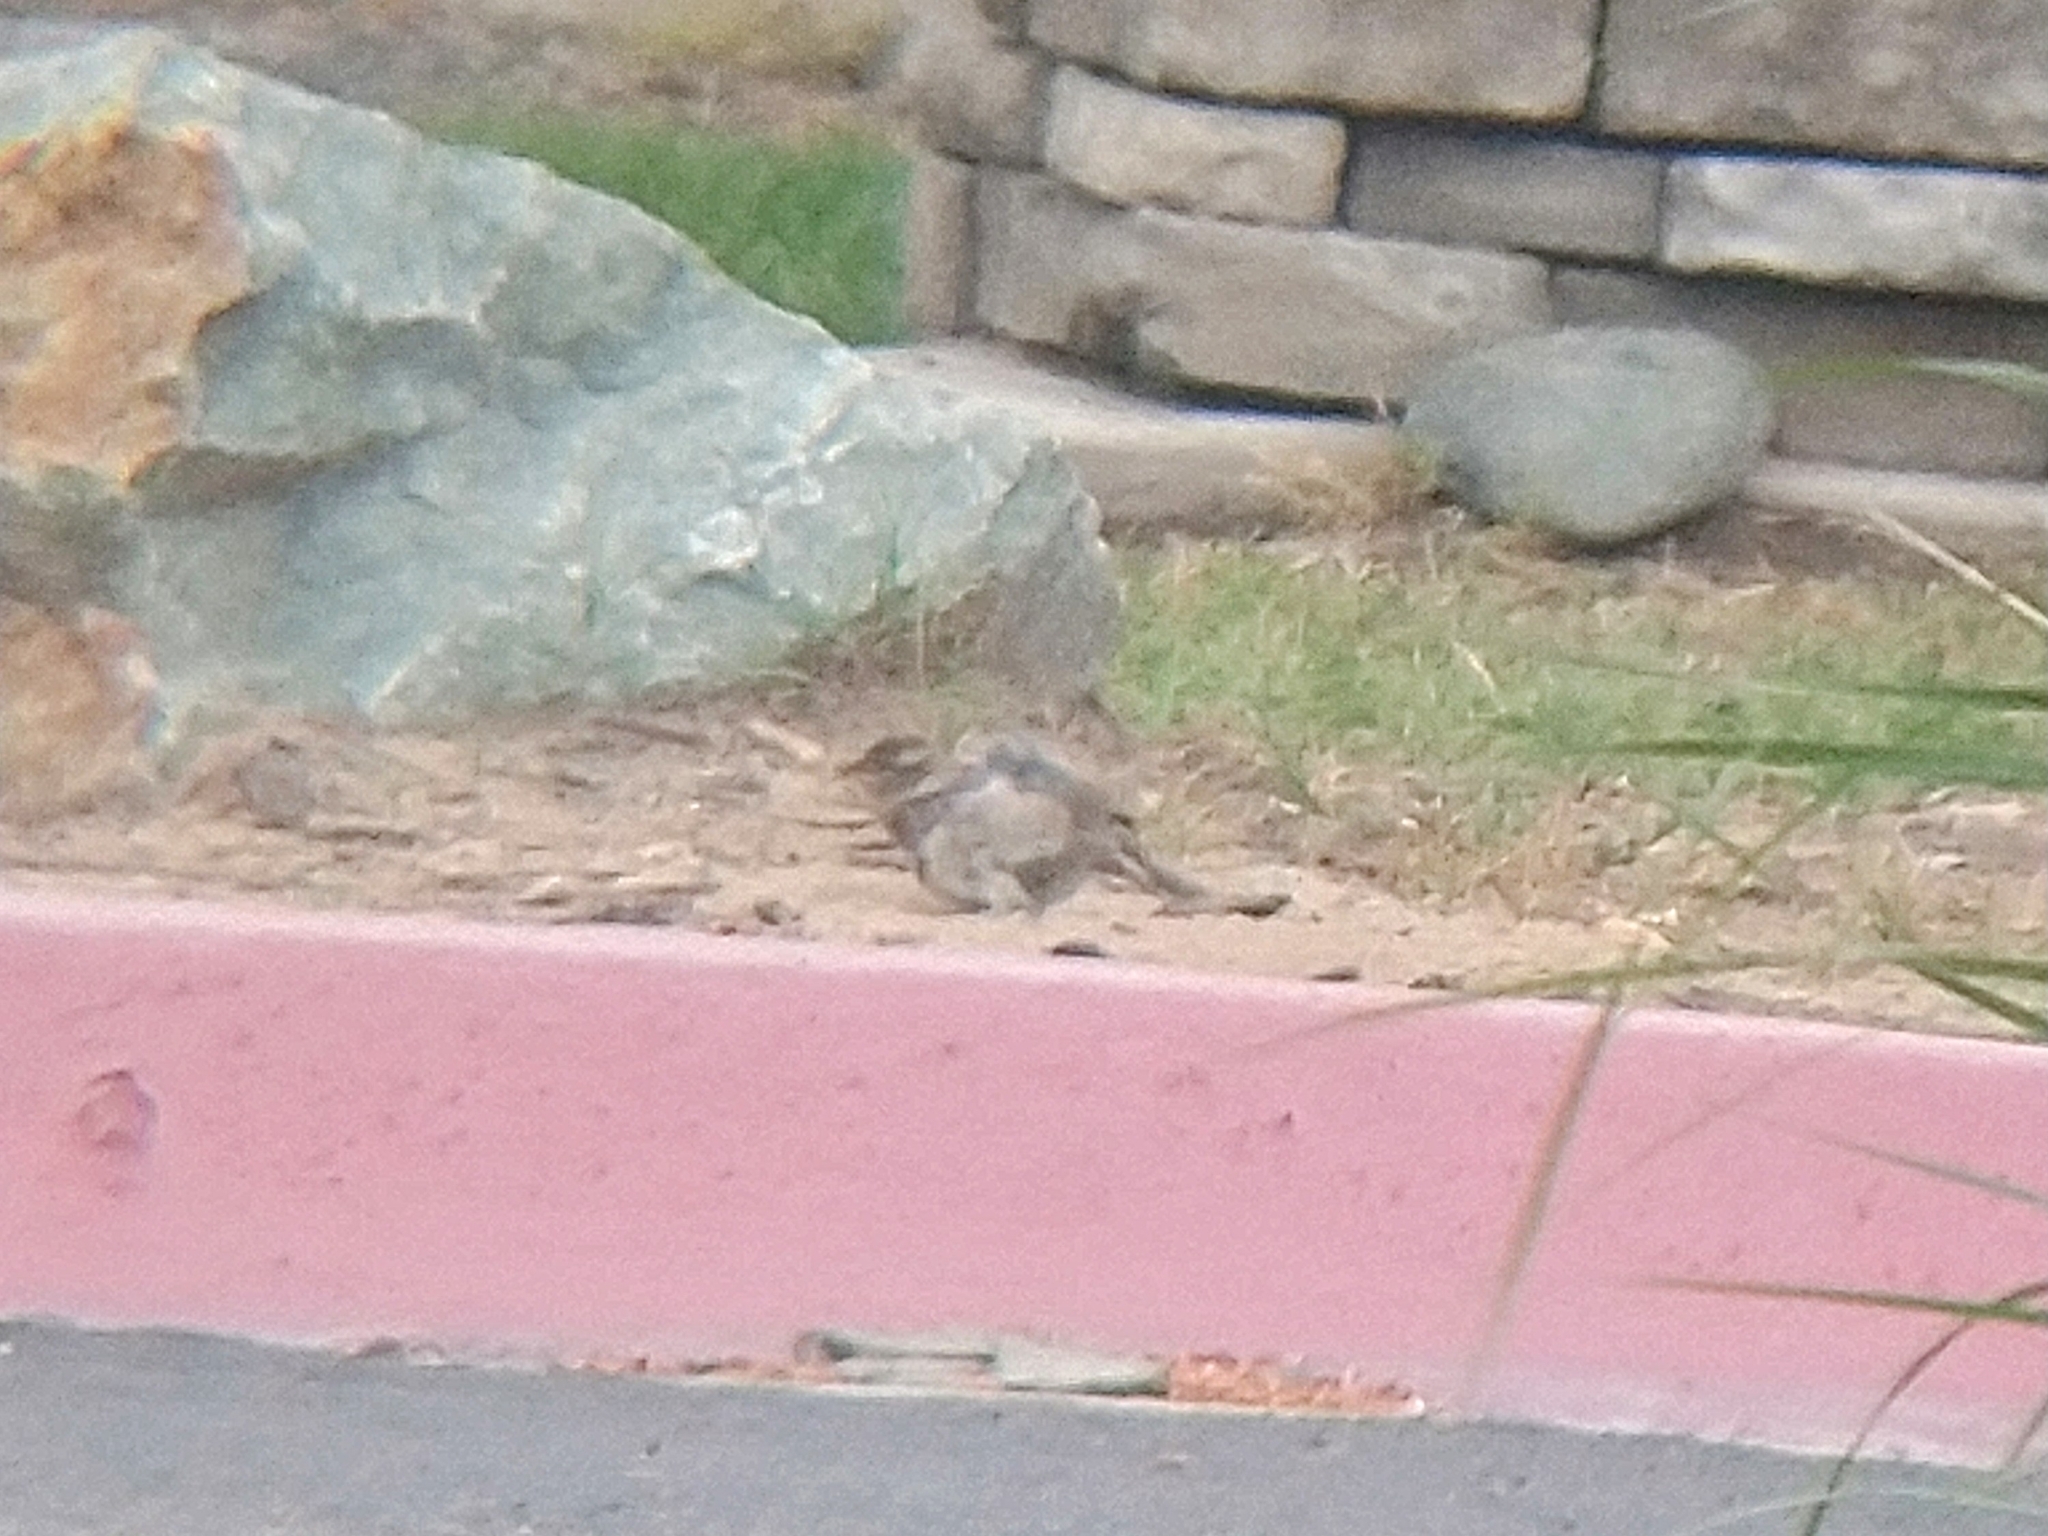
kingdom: Animalia
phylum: Chordata
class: Aves
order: Passeriformes
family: Passeridae
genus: Passer
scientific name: Passer domesticus
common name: House sparrow
